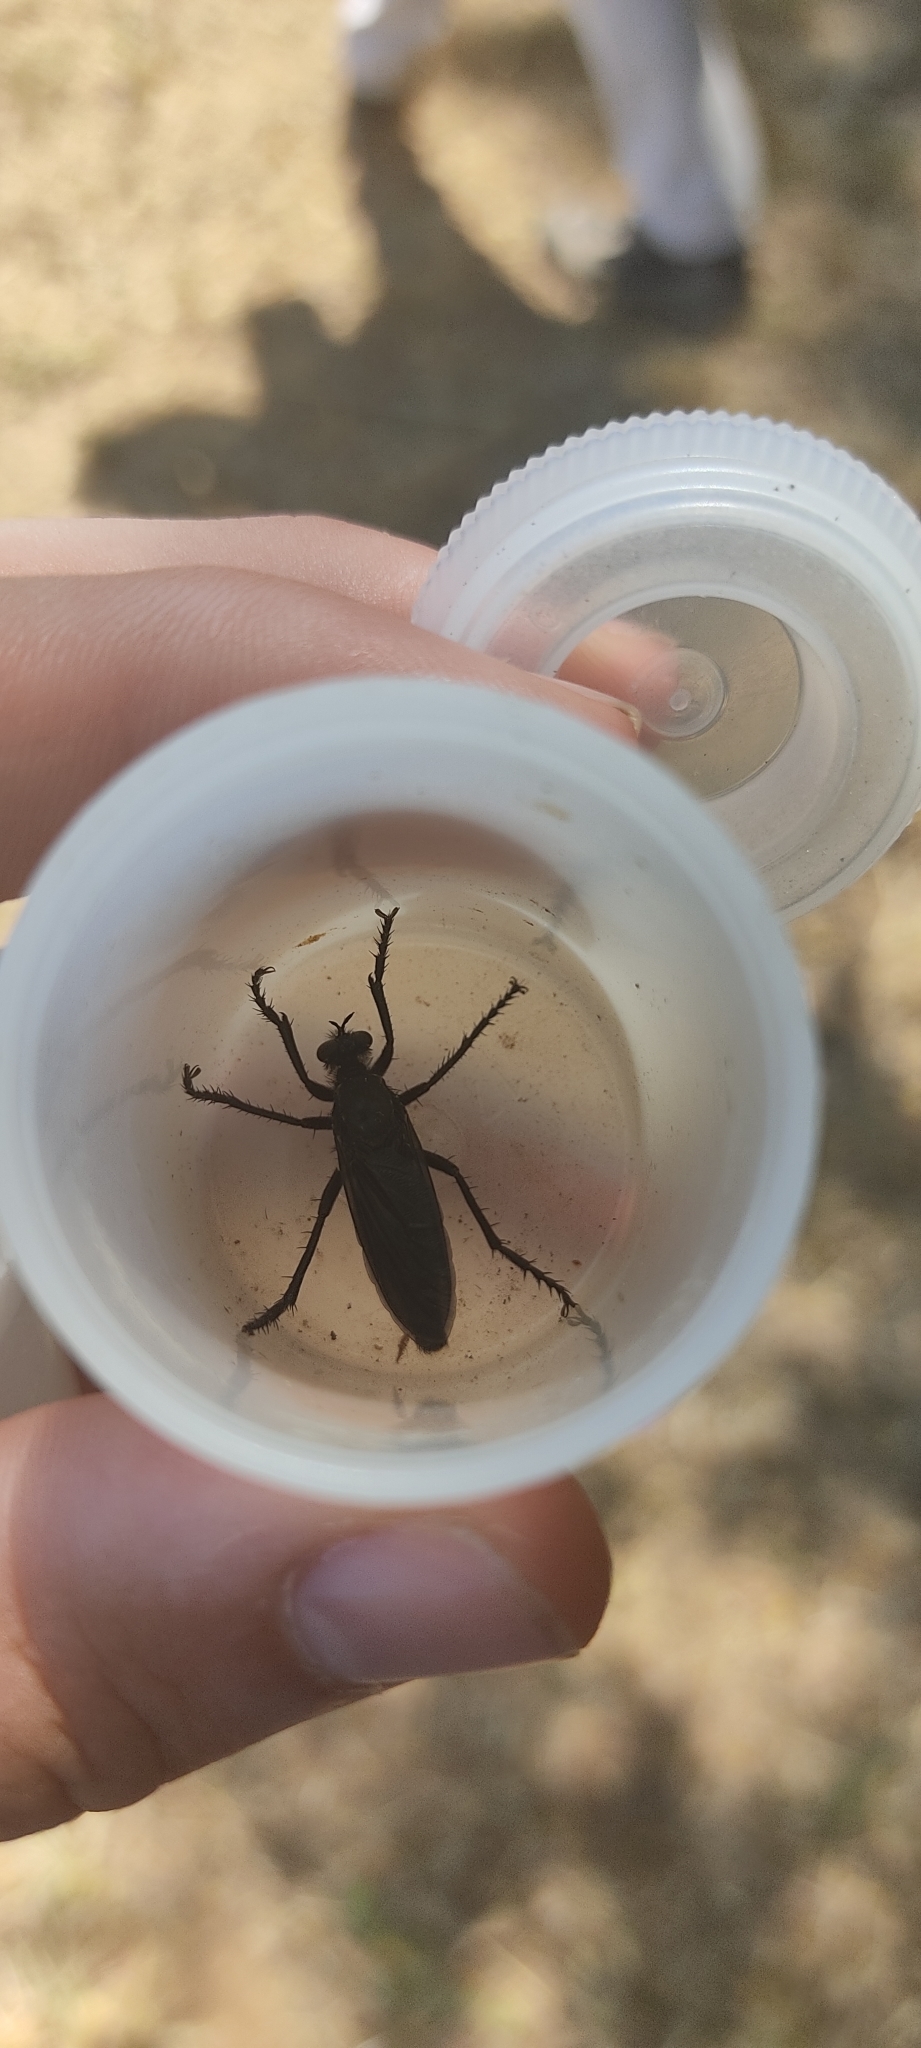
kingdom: Animalia
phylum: Arthropoda
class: Insecta
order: Diptera
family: Asilidae
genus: Dasypogon
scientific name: Dasypogon diadema
